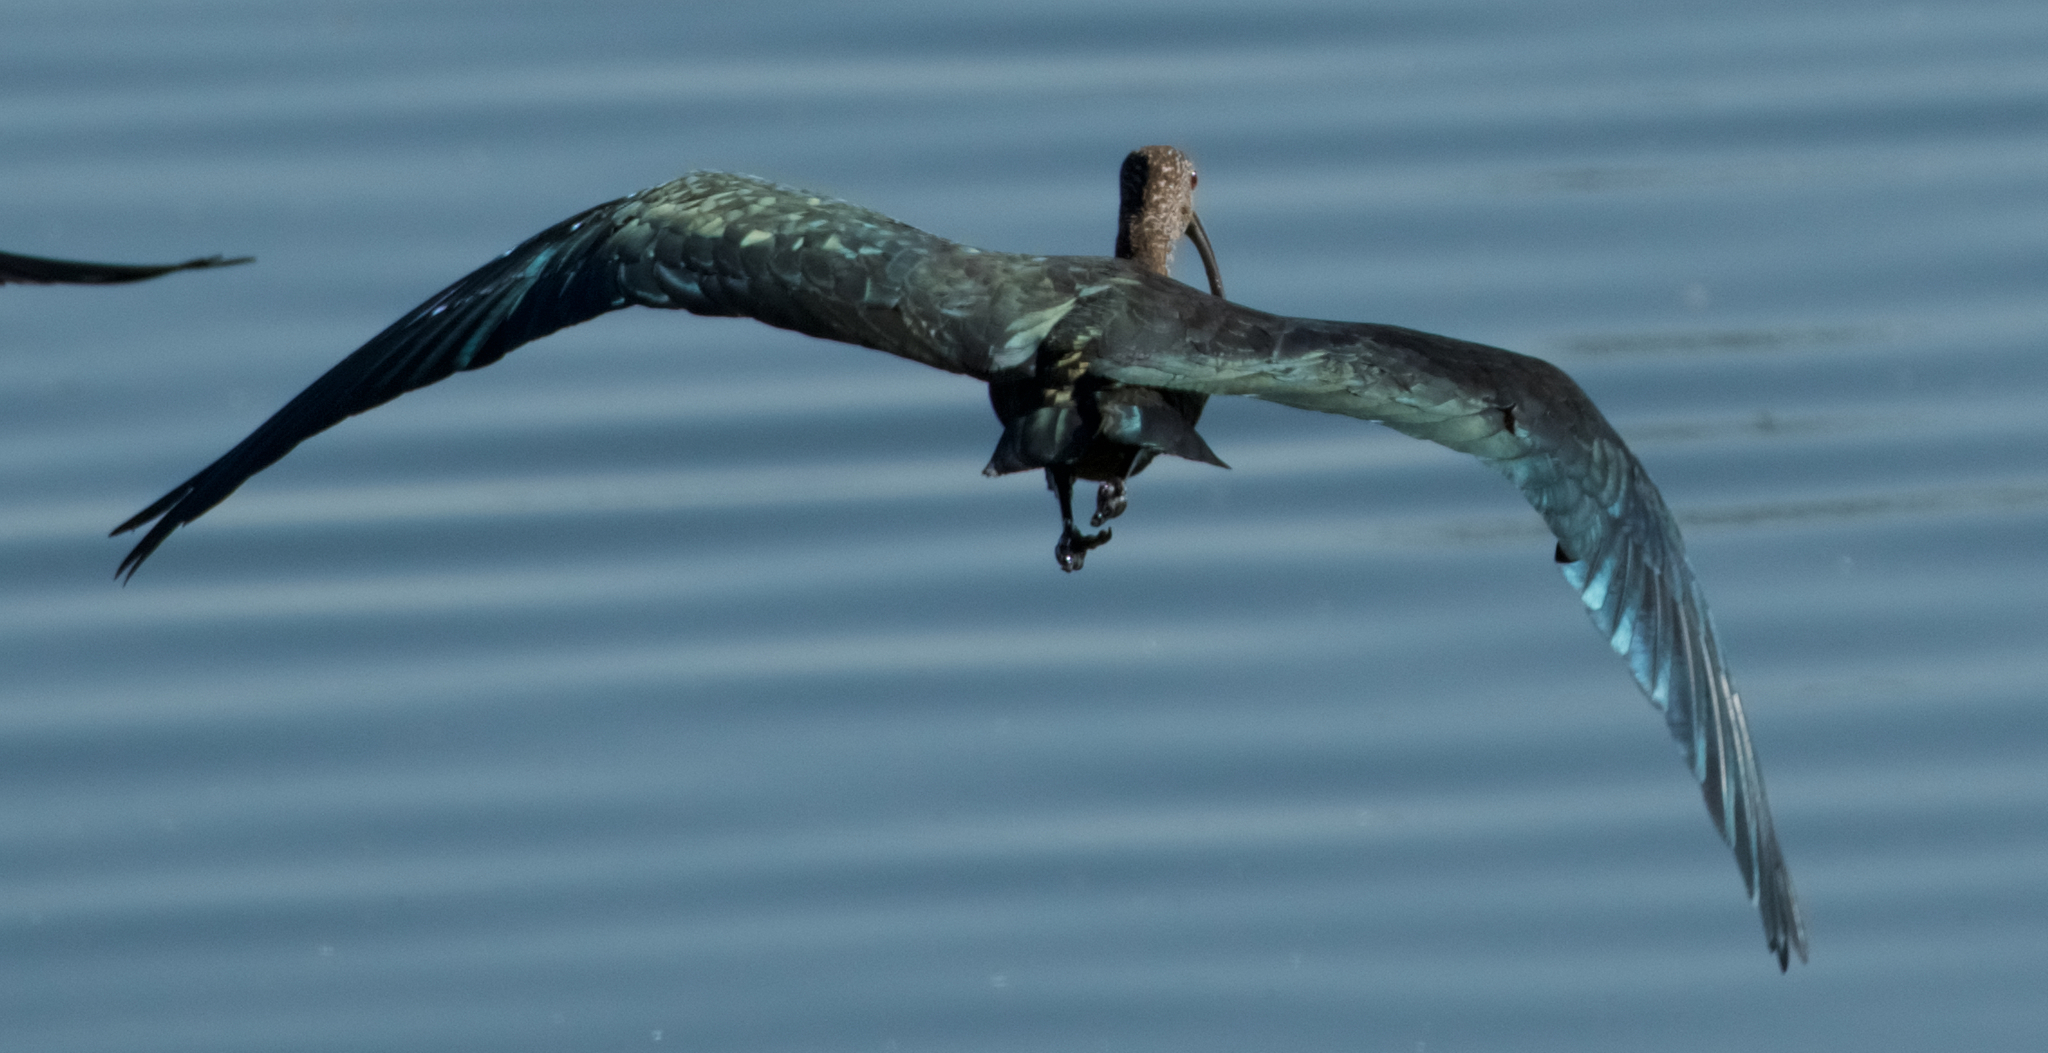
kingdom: Animalia
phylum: Chordata
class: Aves
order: Pelecaniformes
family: Threskiornithidae
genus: Plegadis
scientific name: Plegadis chihi
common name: White-faced ibis
